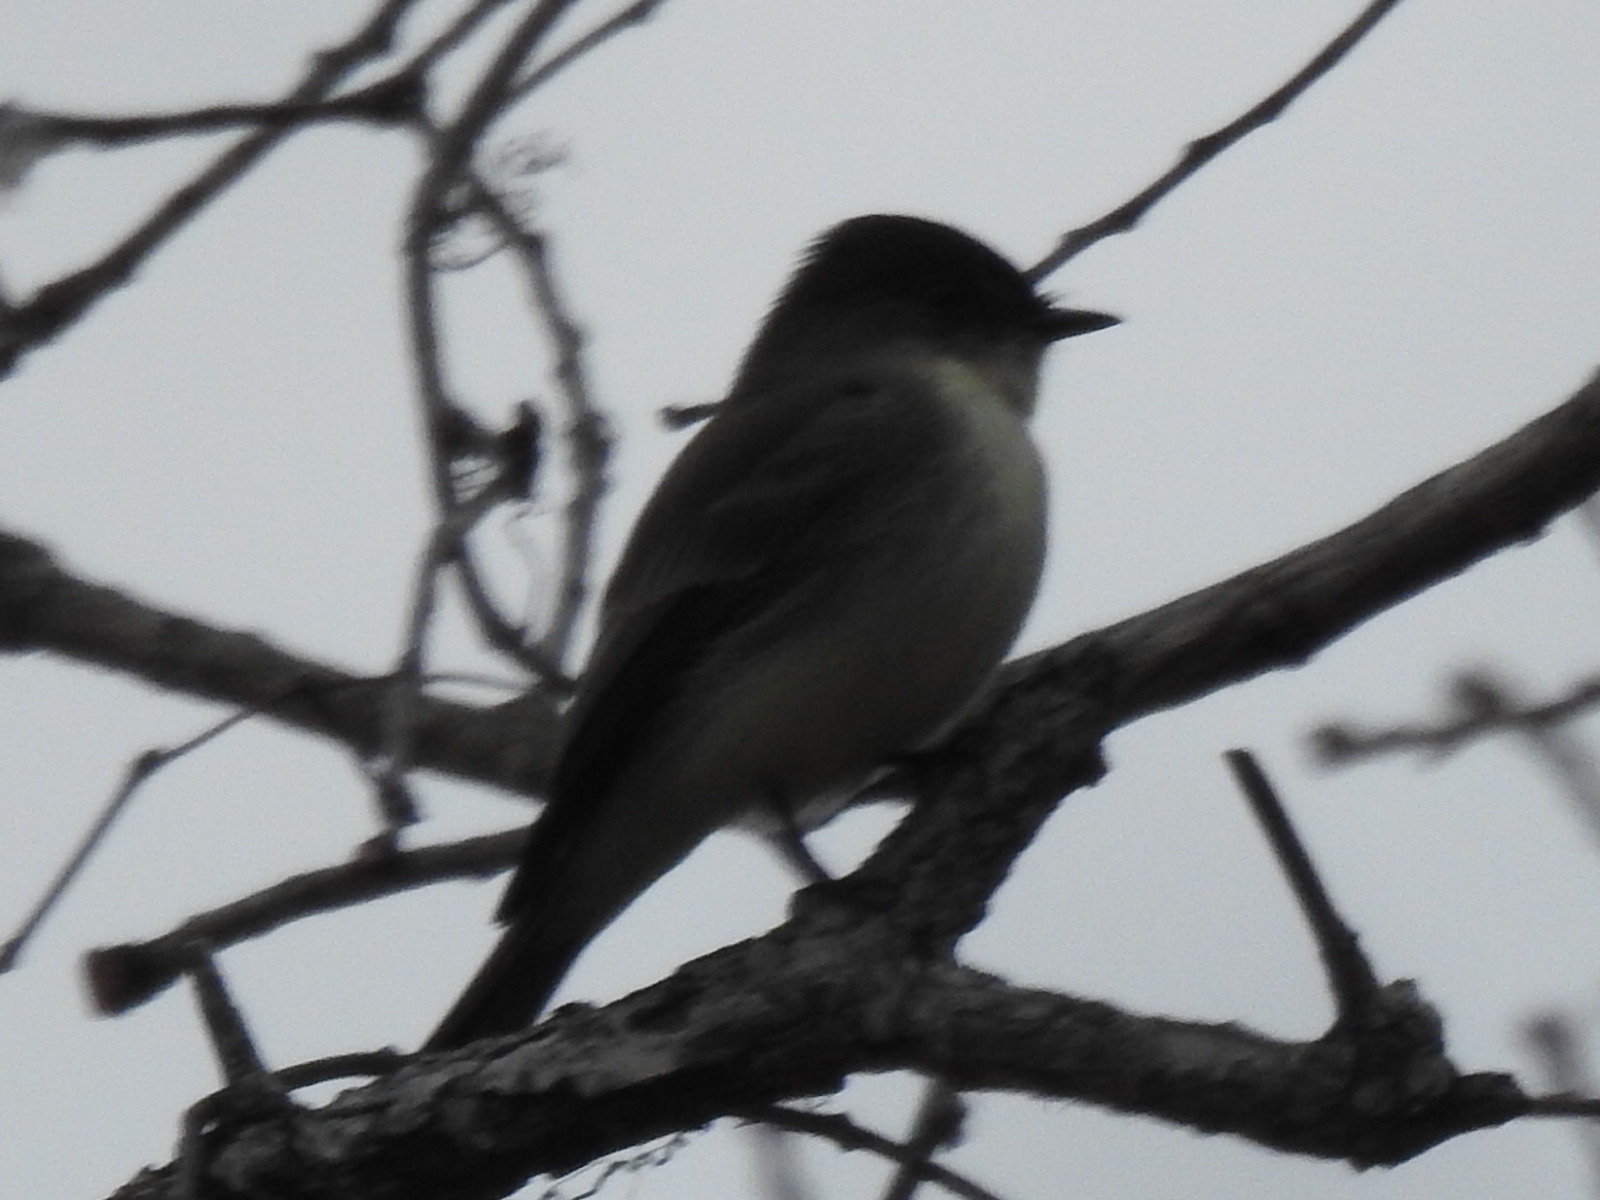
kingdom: Animalia
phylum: Chordata
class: Aves
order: Passeriformes
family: Tyrannidae
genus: Sayornis
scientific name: Sayornis phoebe
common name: Eastern phoebe
